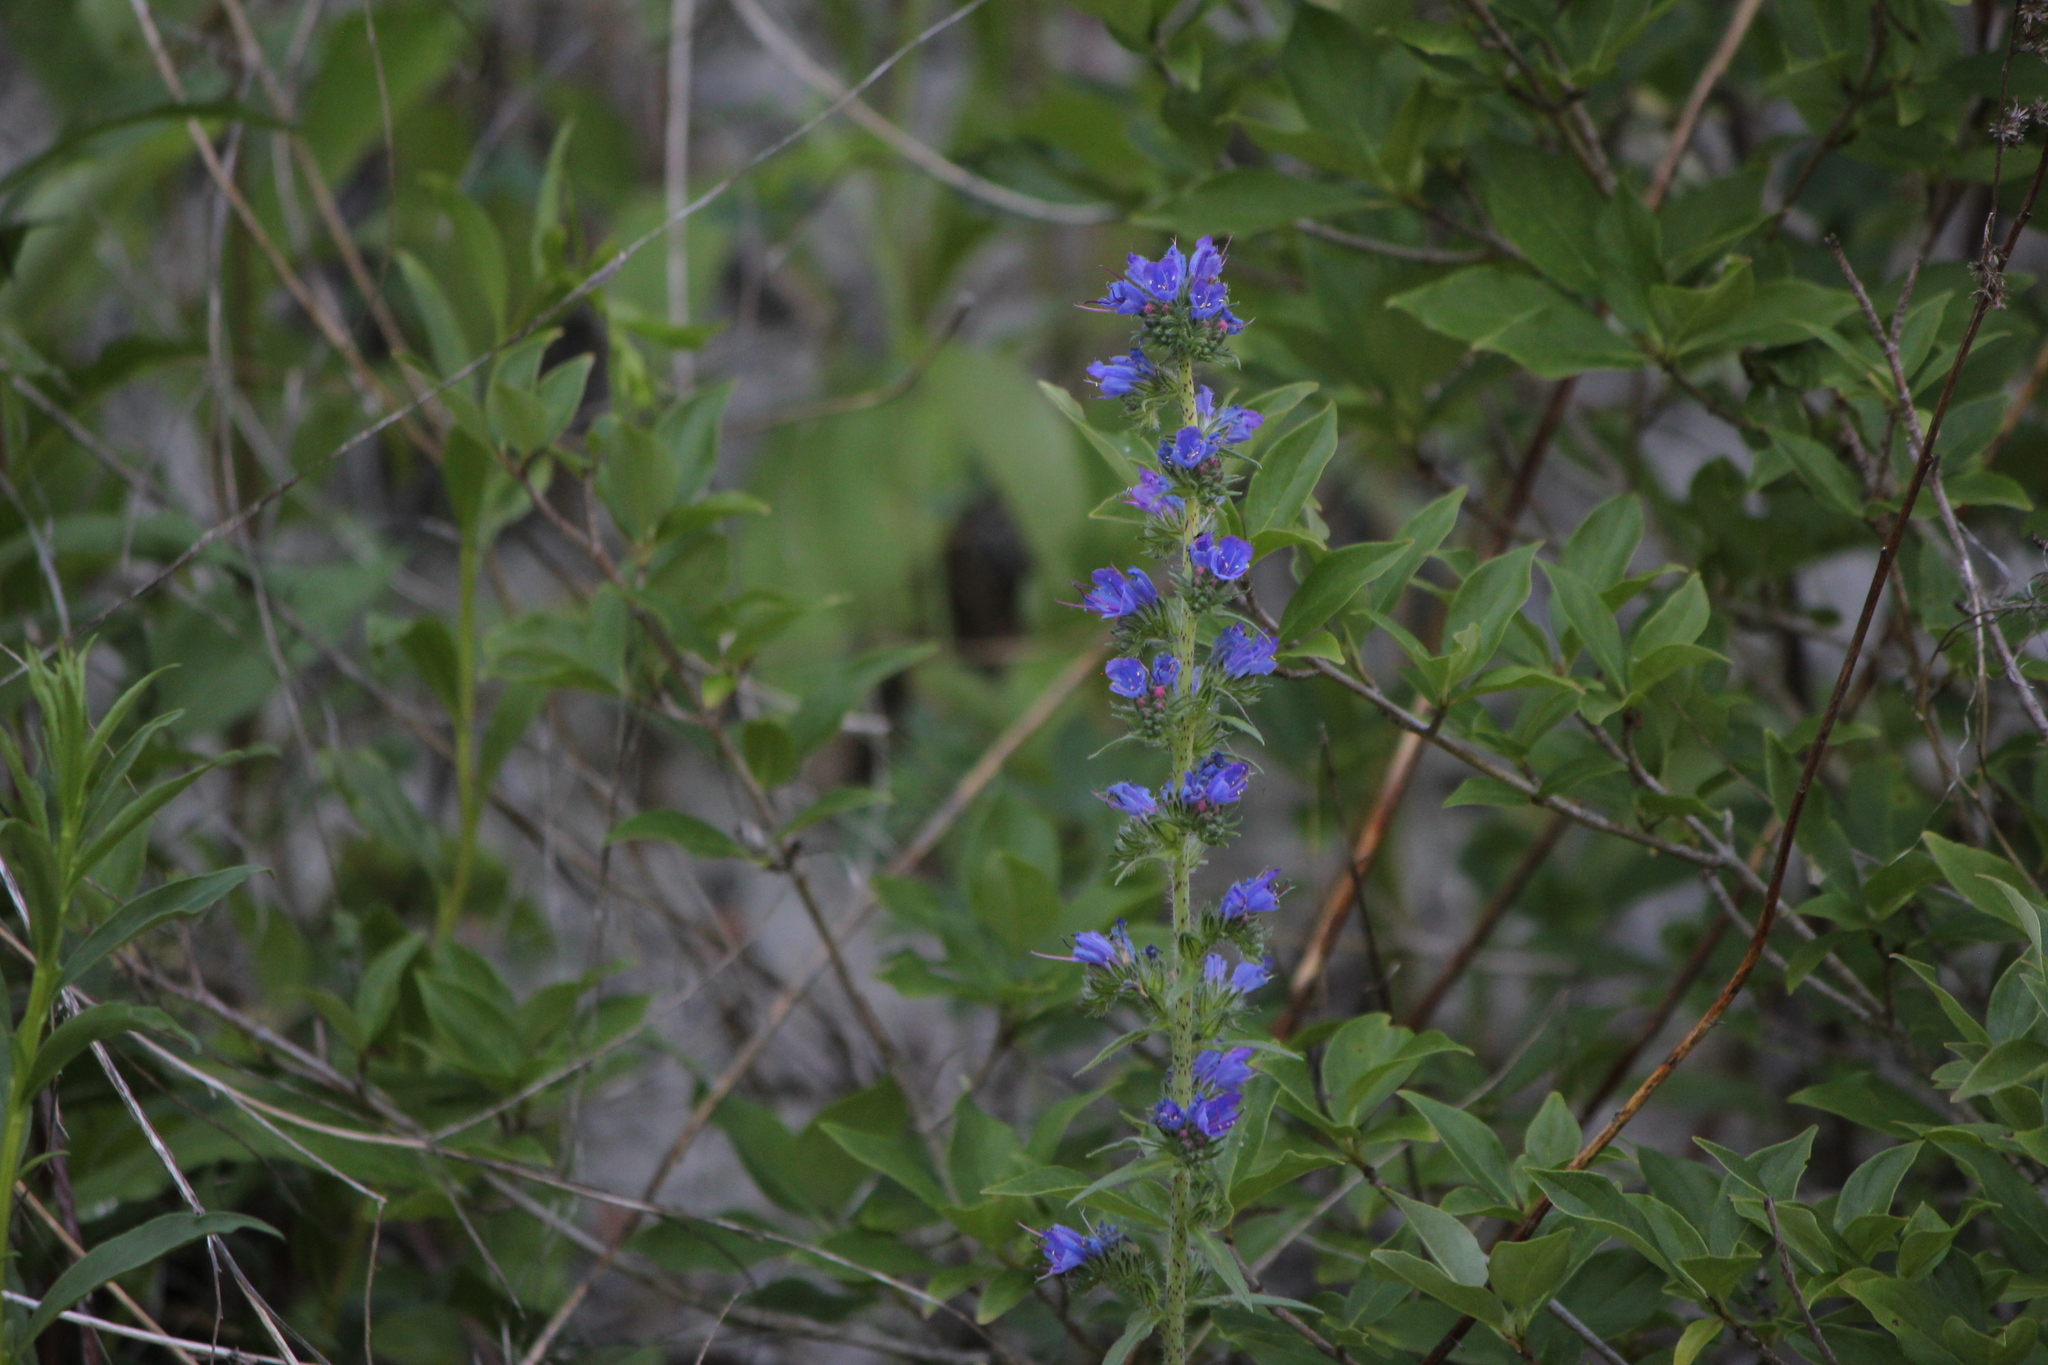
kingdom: Plantae
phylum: Tracheophyta
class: Magnoliopsida
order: Boraginales
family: Boraginaceae
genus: Echium
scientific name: Echium vulgare
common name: Common viper's bugloss
